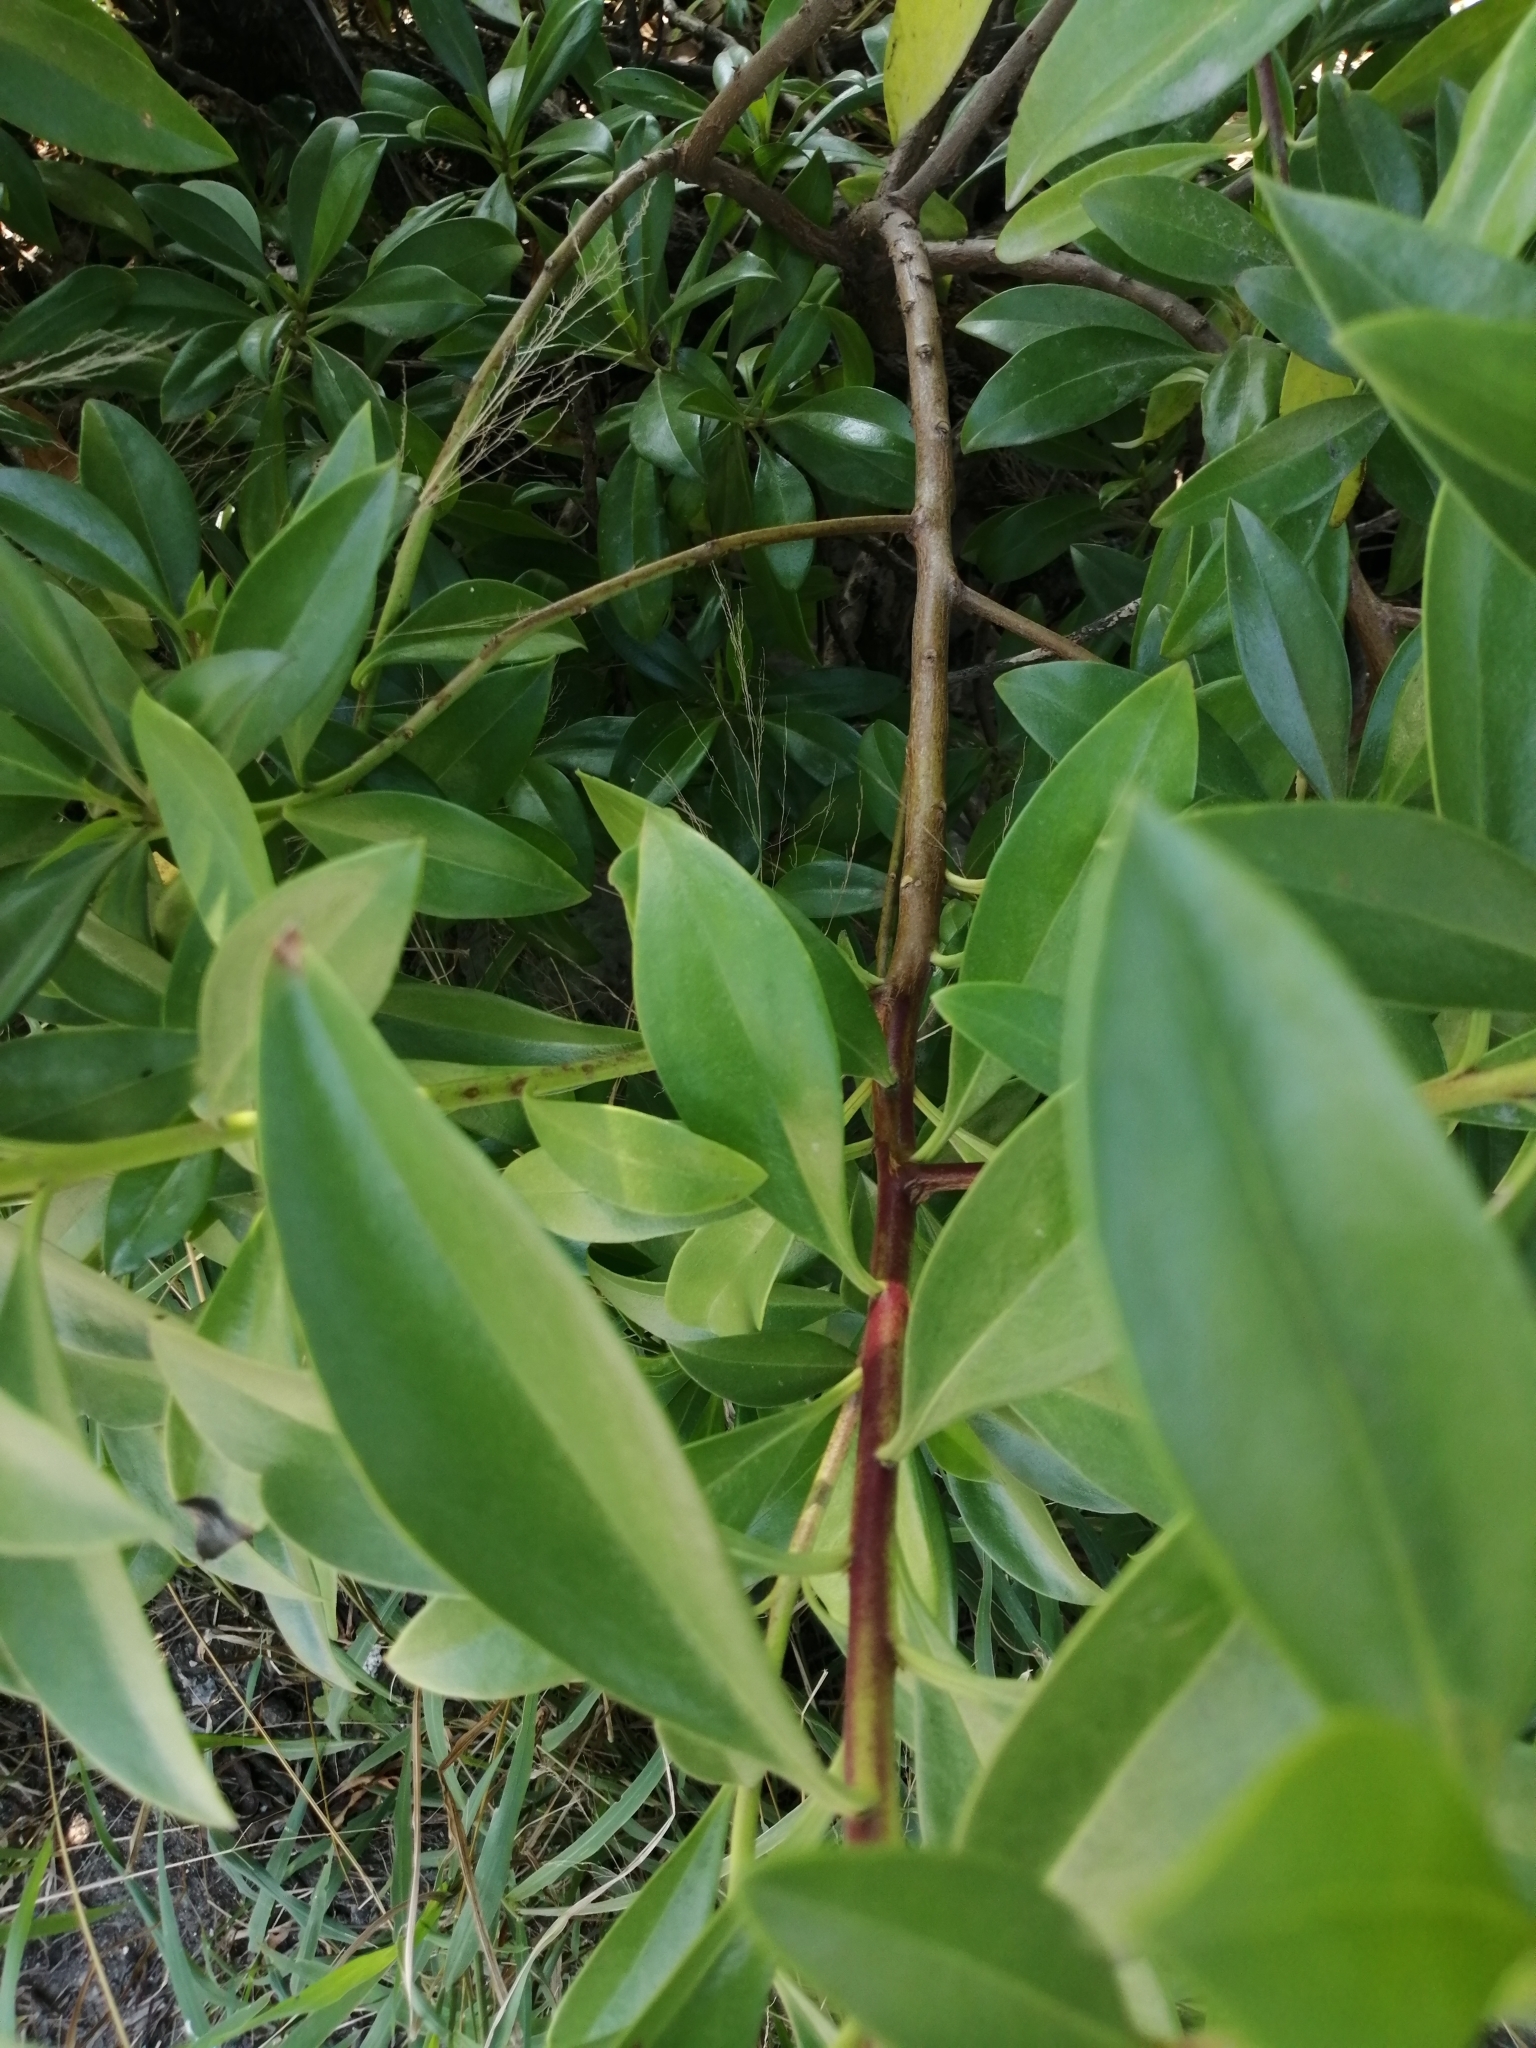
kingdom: Plantae
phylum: Tracheophyta
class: Magnoliopsida
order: Lamiales
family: Scrophulariaceae
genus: Myoporum
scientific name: Myoporum bontioides
